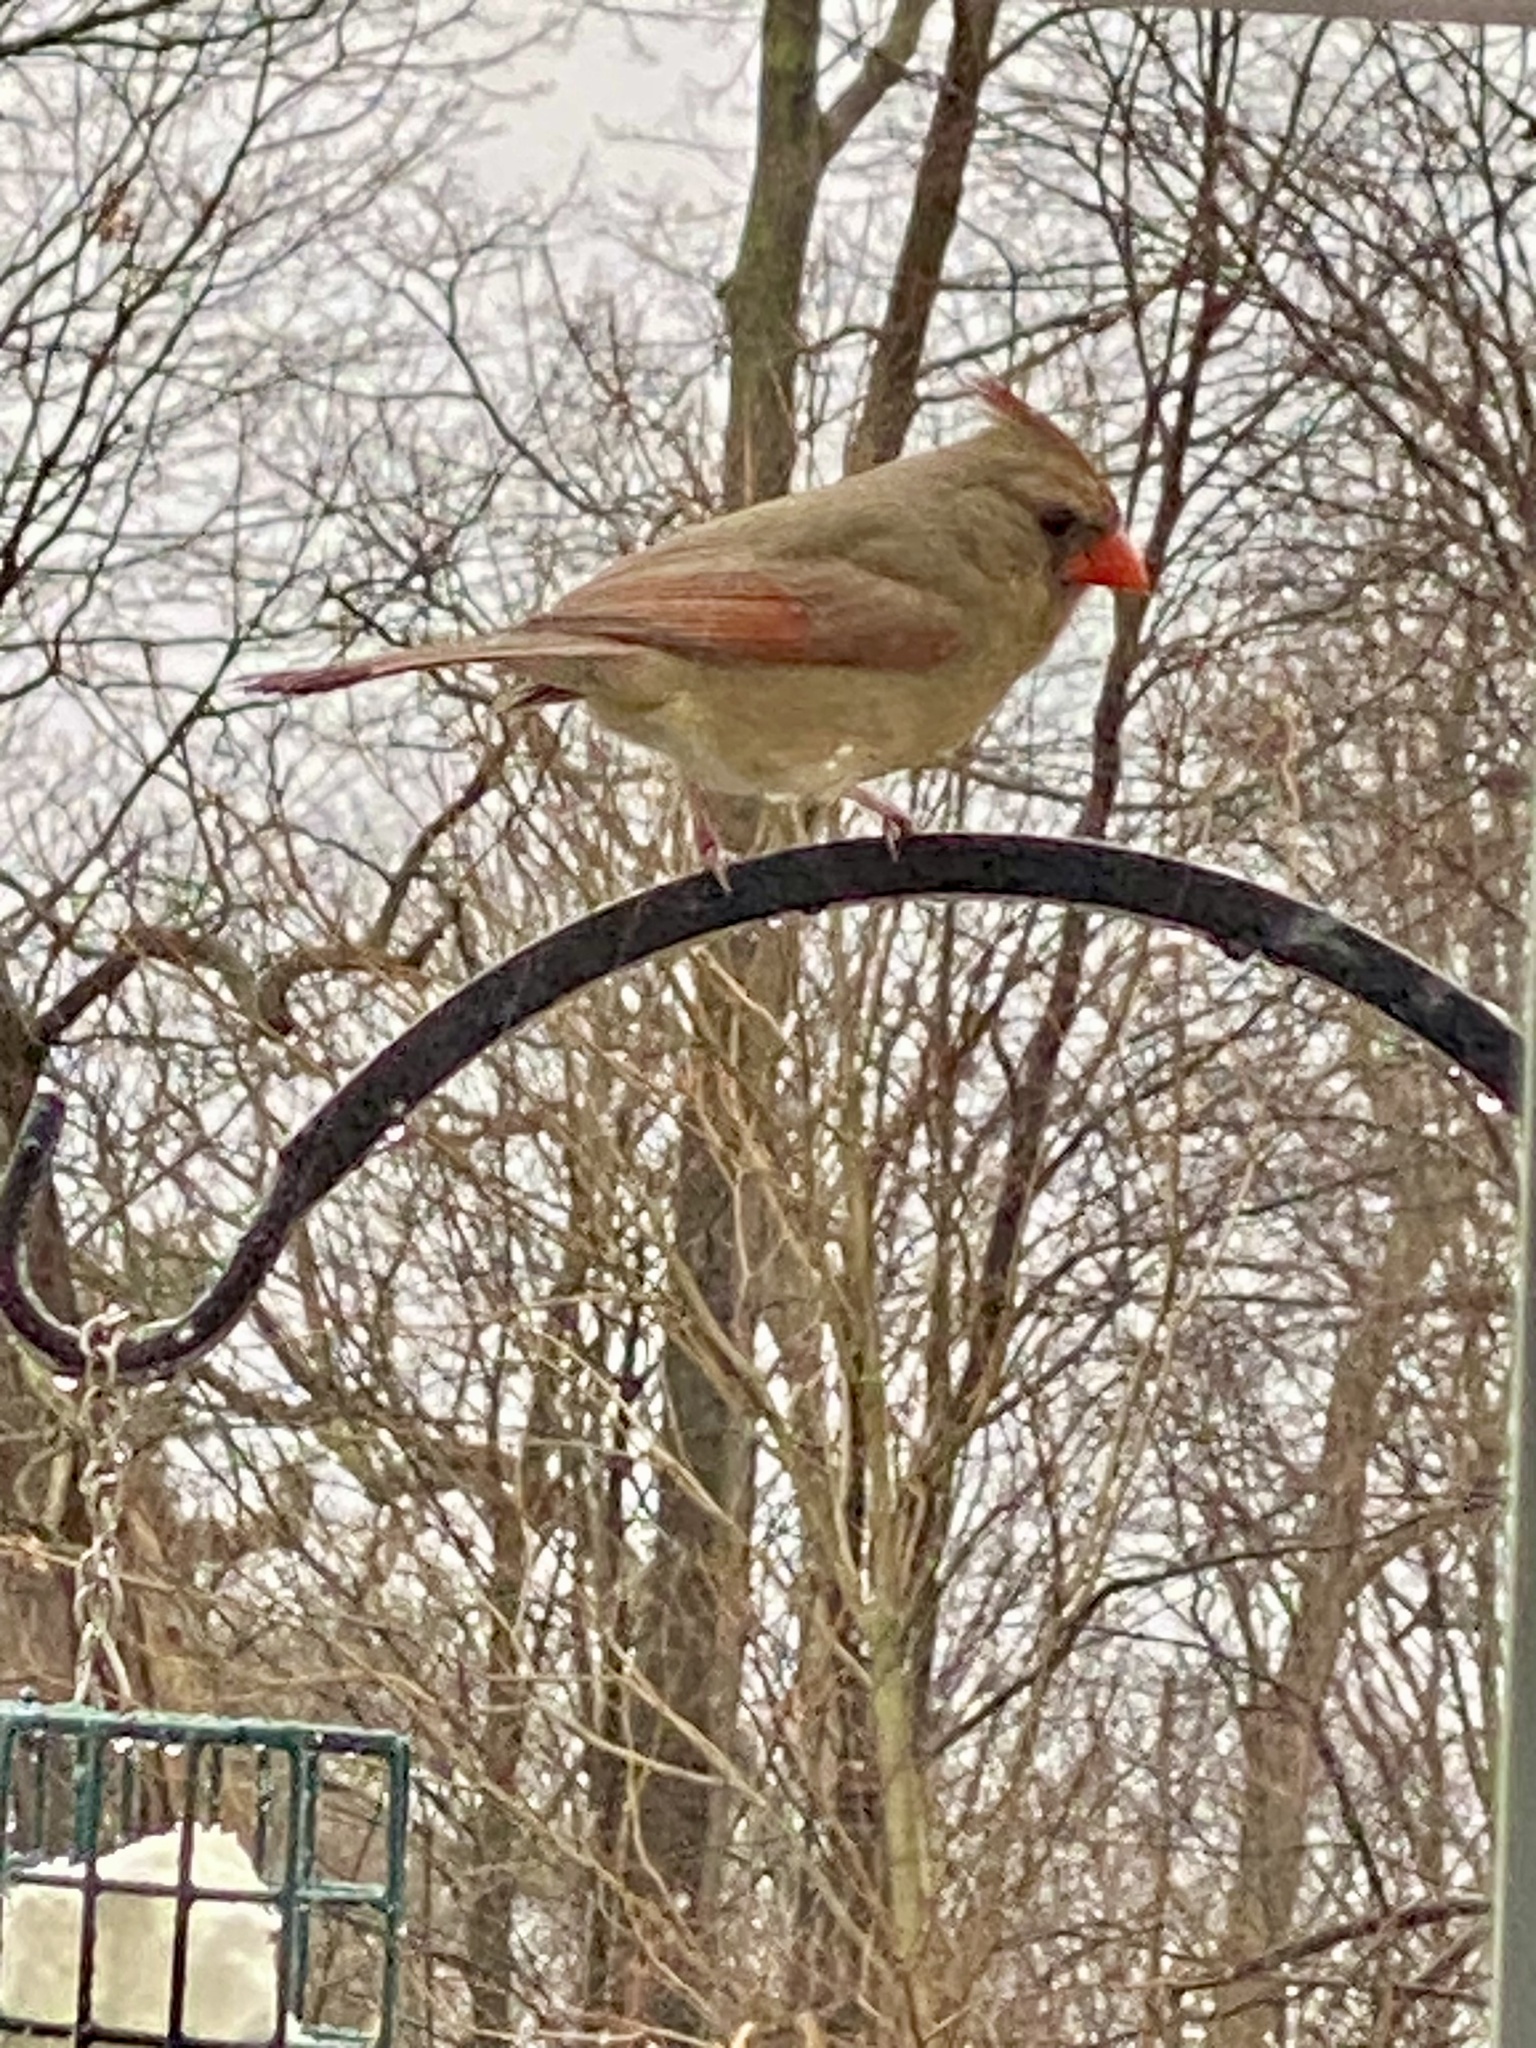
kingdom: Animalia
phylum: Chordata
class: Aves
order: Passeriformes
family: Cardinalidae
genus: Cardinalis
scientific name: Cardinalis cardinalis
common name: Northern cardinal
